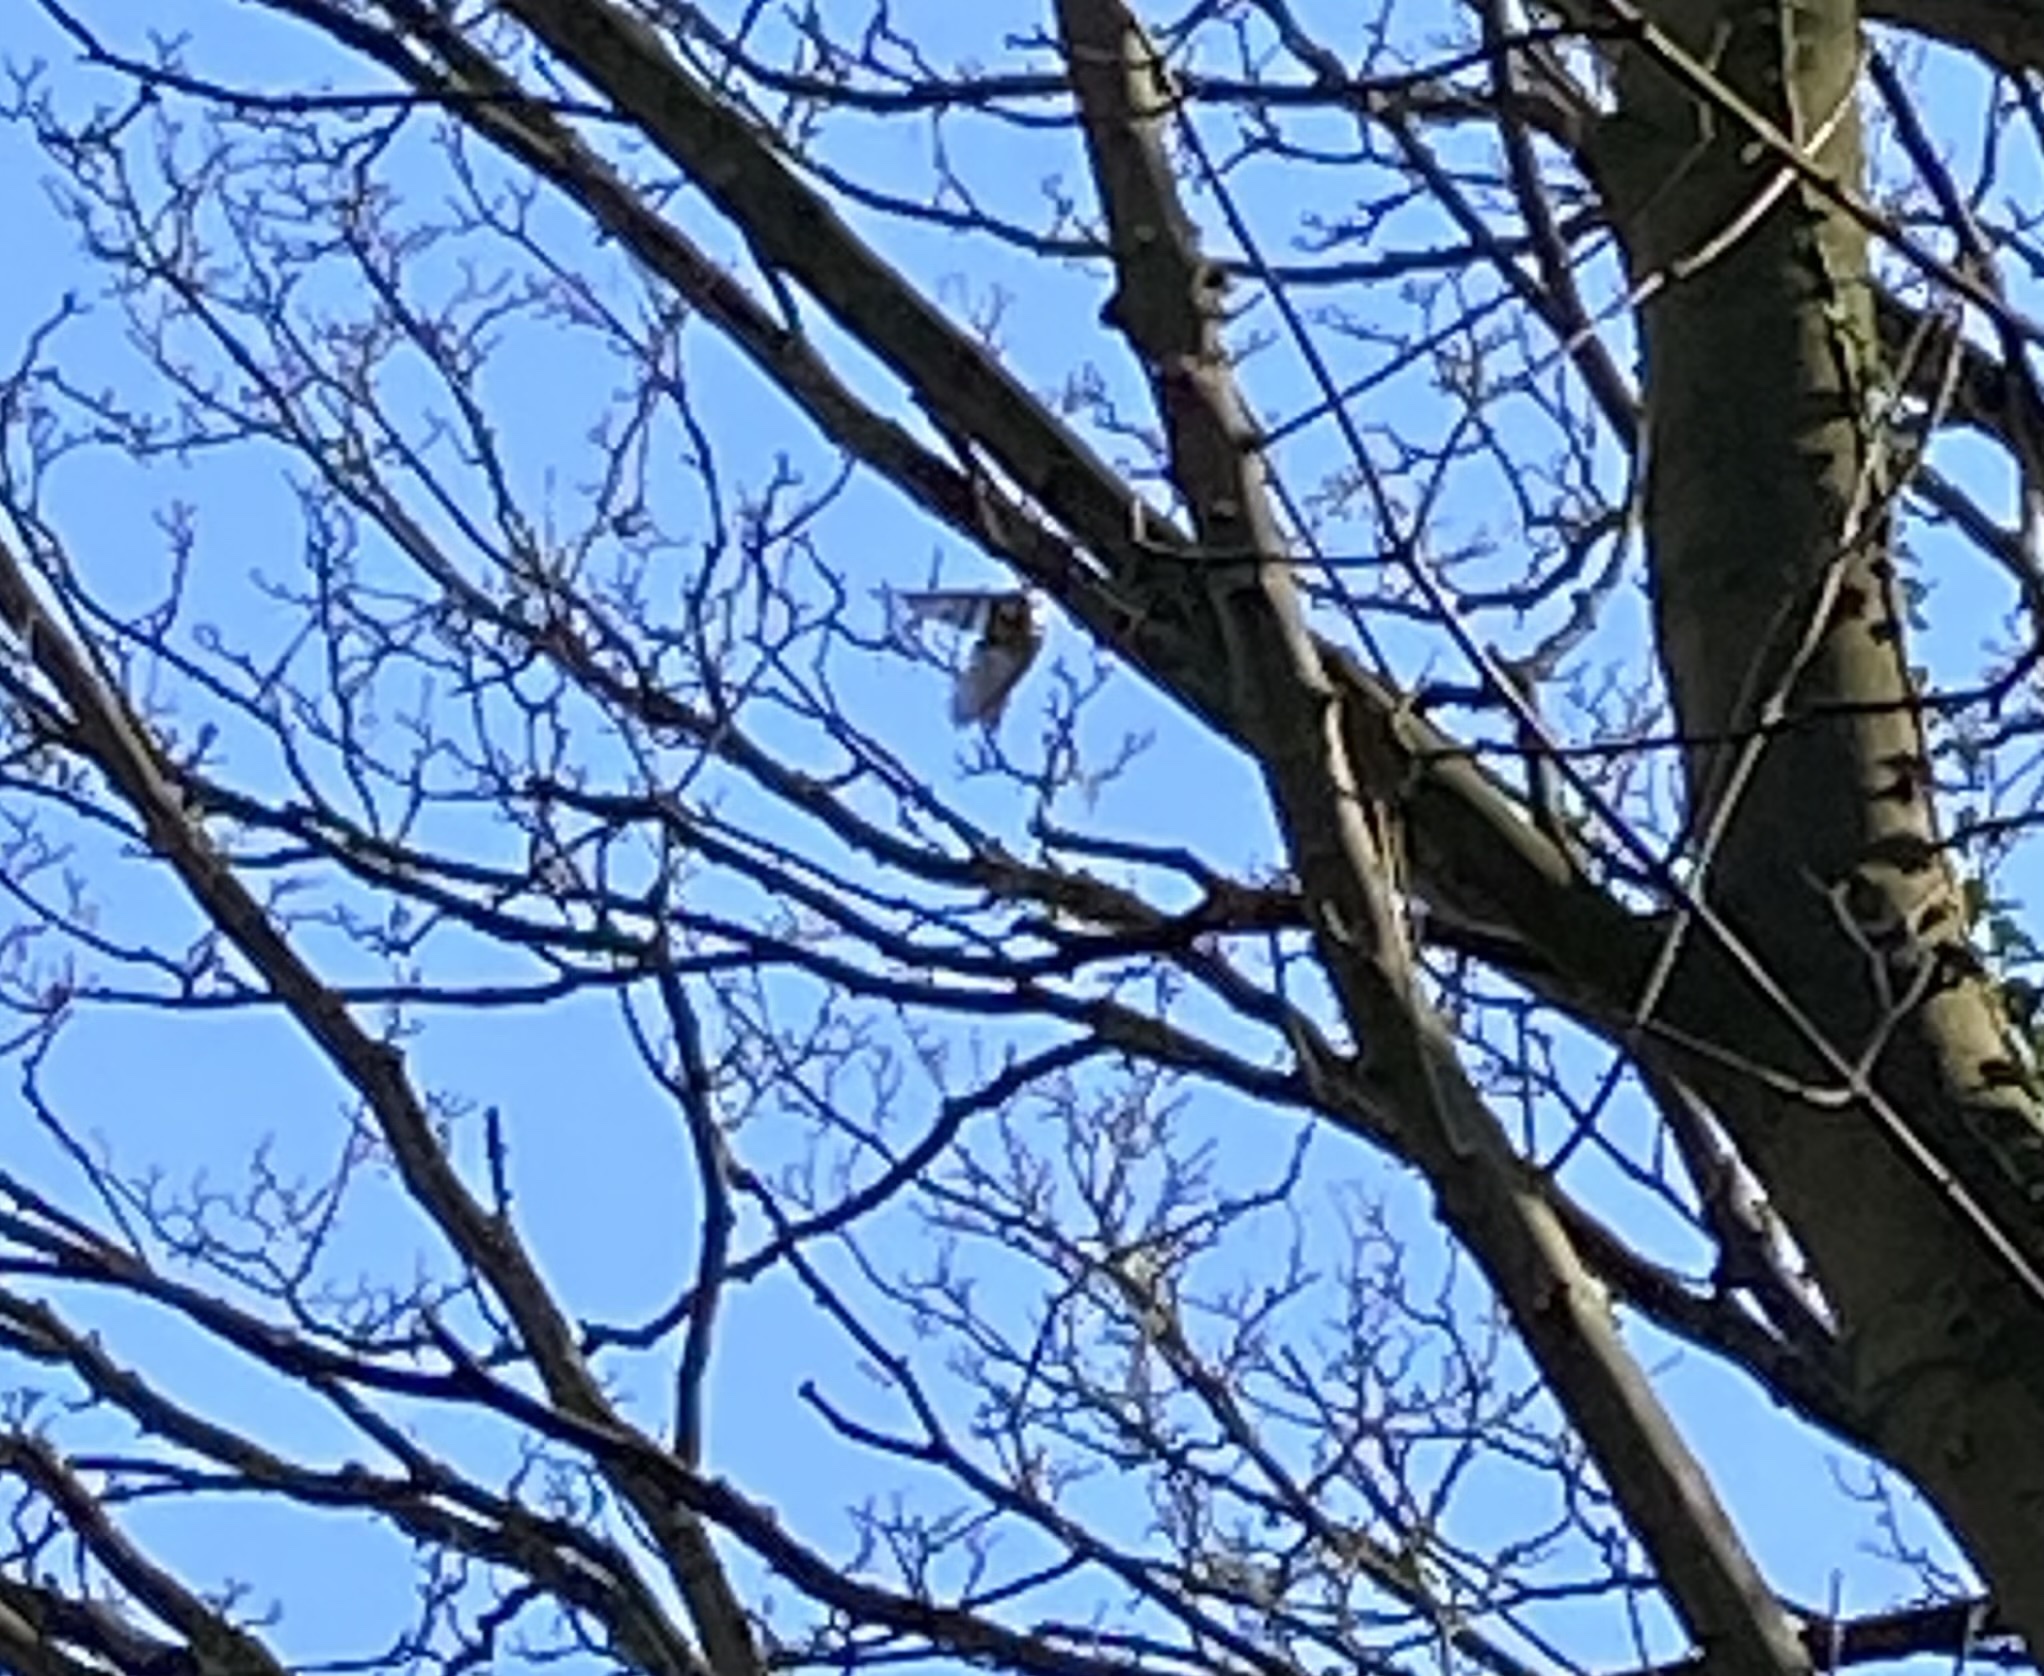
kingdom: Animalia
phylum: Chordata
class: Aves
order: Passeriformes
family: Paridae
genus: Cyanistes
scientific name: Cyanistes caeruleus
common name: Eurasian blue tit
